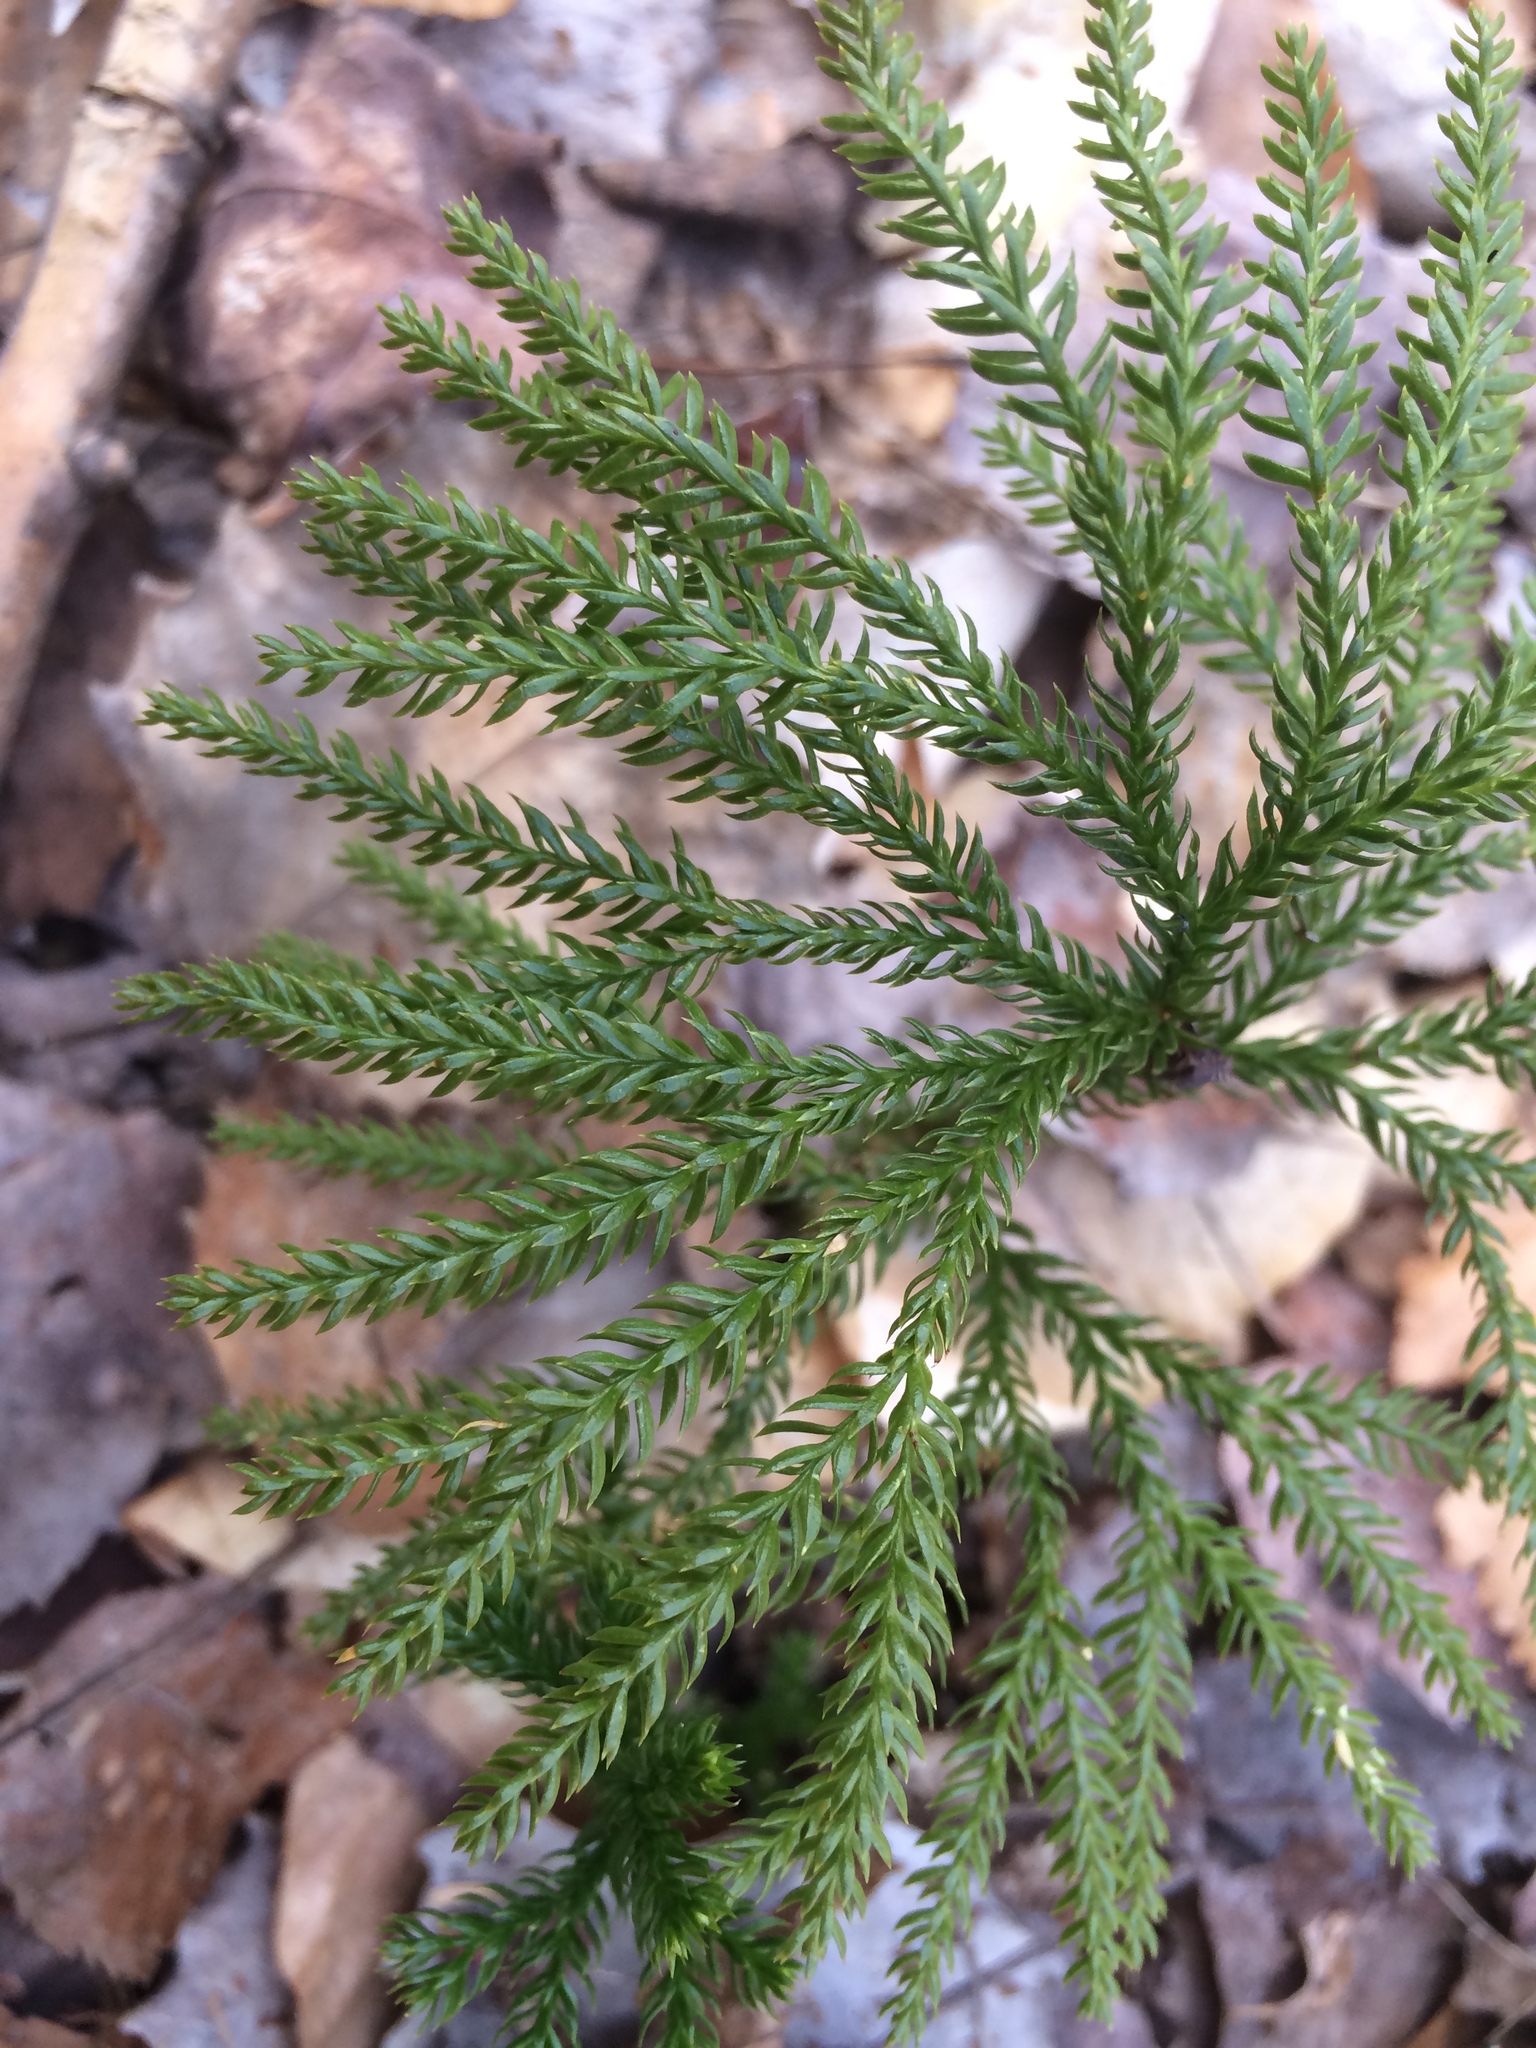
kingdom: Plantae
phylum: Tracheophyta
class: Lycopodiopsida
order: Lycopodiales
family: Lycopodiaceae
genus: Dendrolycopodium
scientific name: Dendrolycopodium dendroideum
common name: Northern tree-clubmoss
